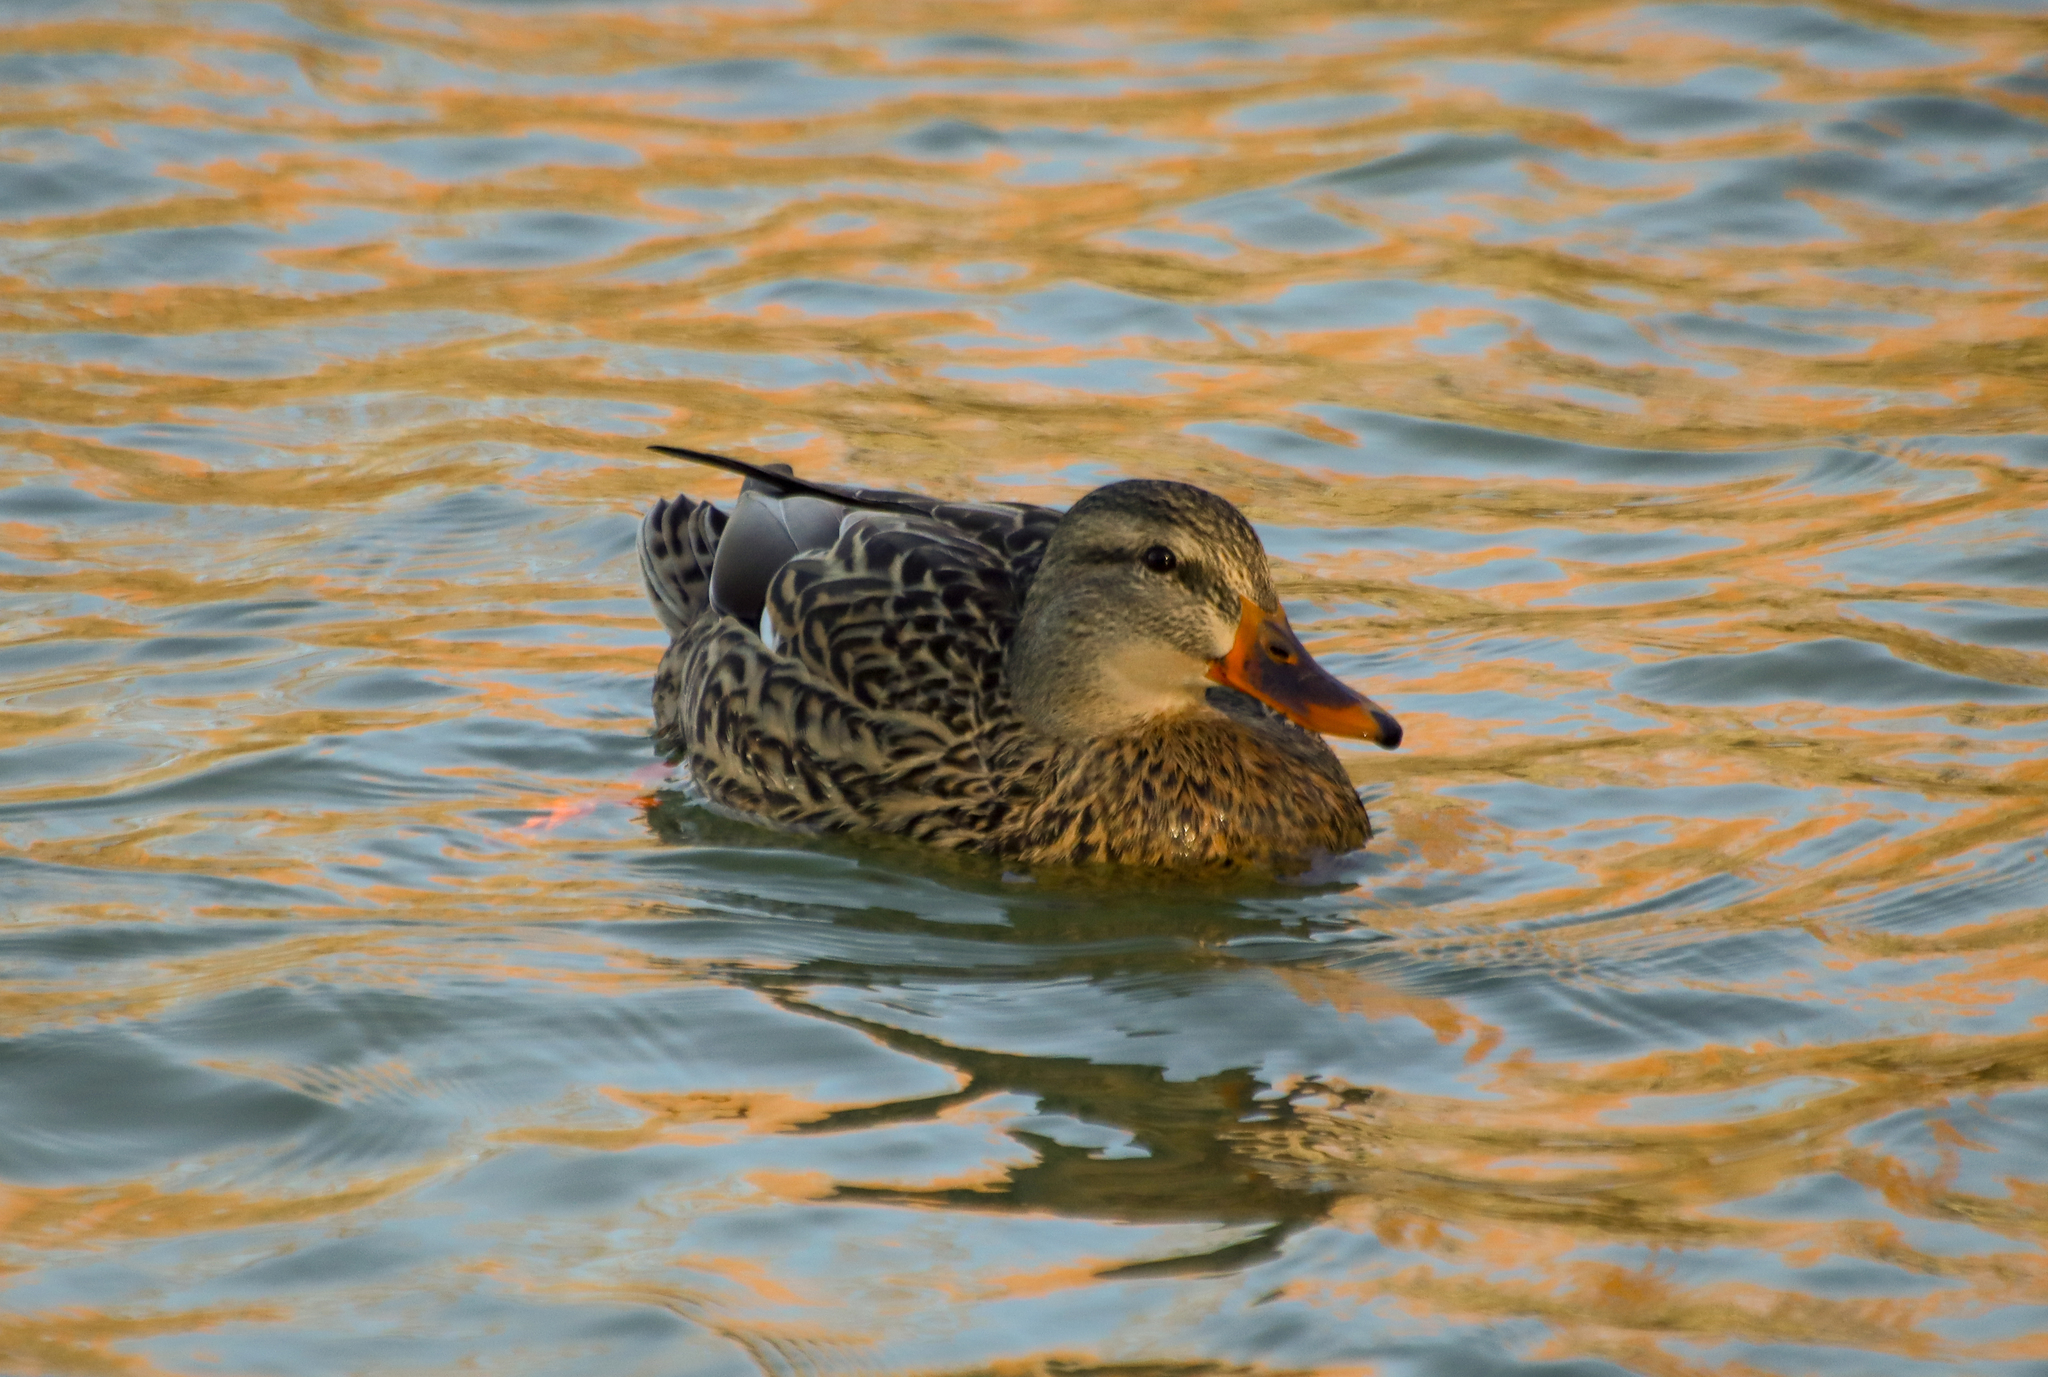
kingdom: Animalia
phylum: Chordata
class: Aves
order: Anseriformes
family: Anatidae
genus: Anas
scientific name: Anas platyrhynchos
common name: Mallard
